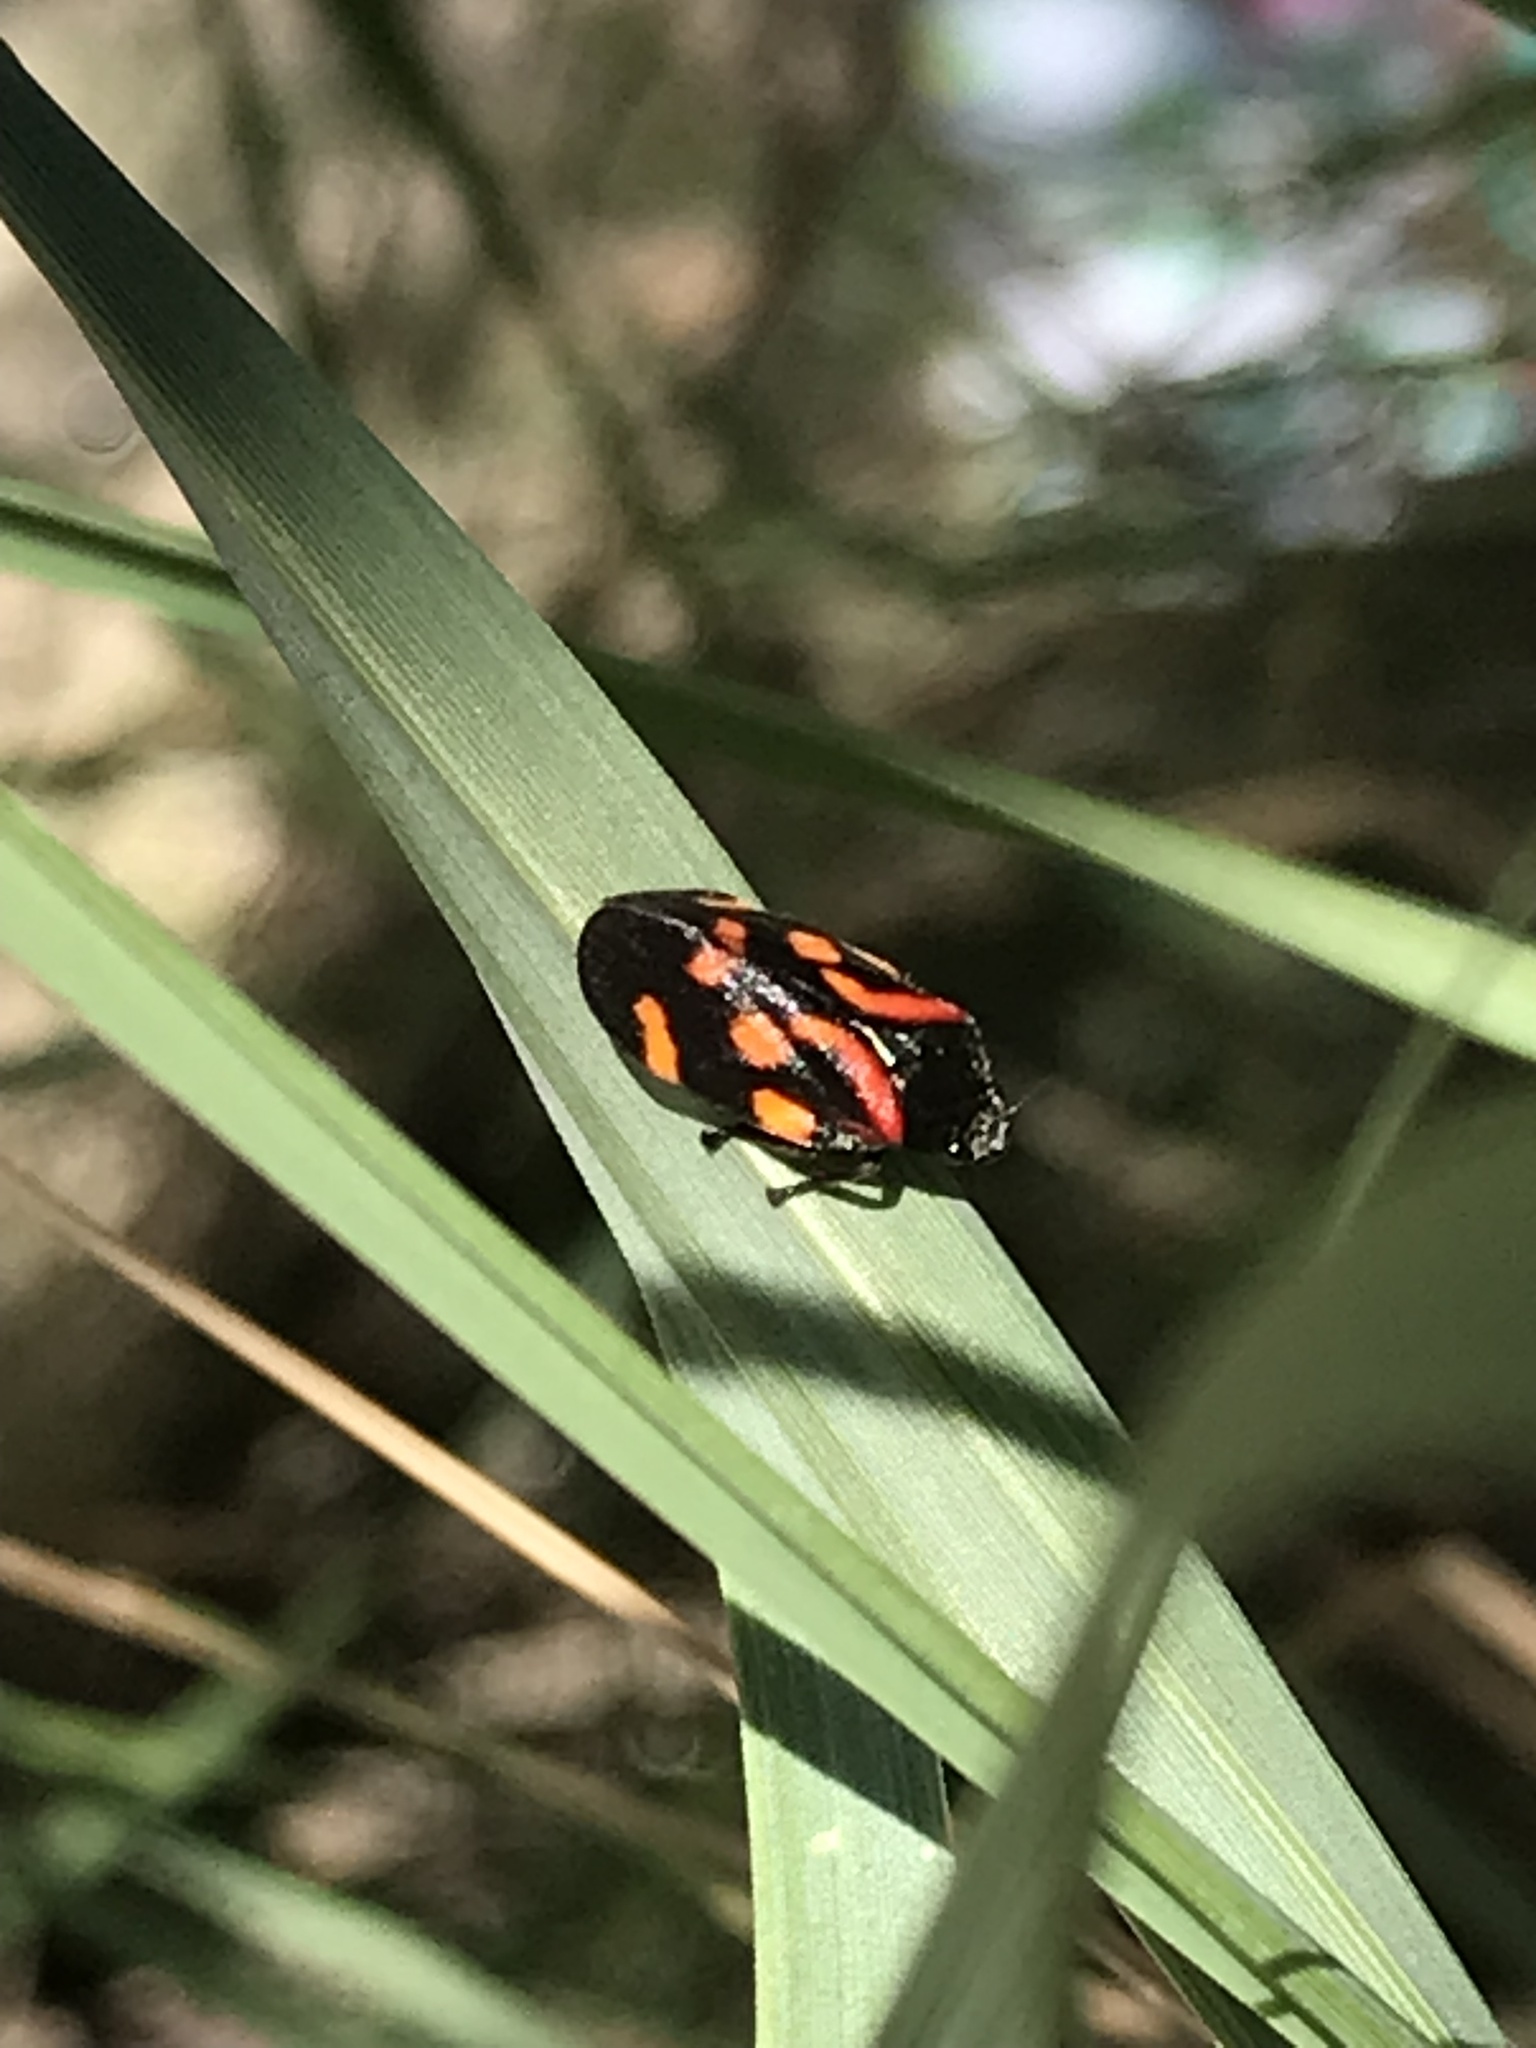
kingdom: Animalia
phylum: Arthropoda
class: Insecta
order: Hemiptera
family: Cercopidae
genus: Isozulia
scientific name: Isozulia christenseni
